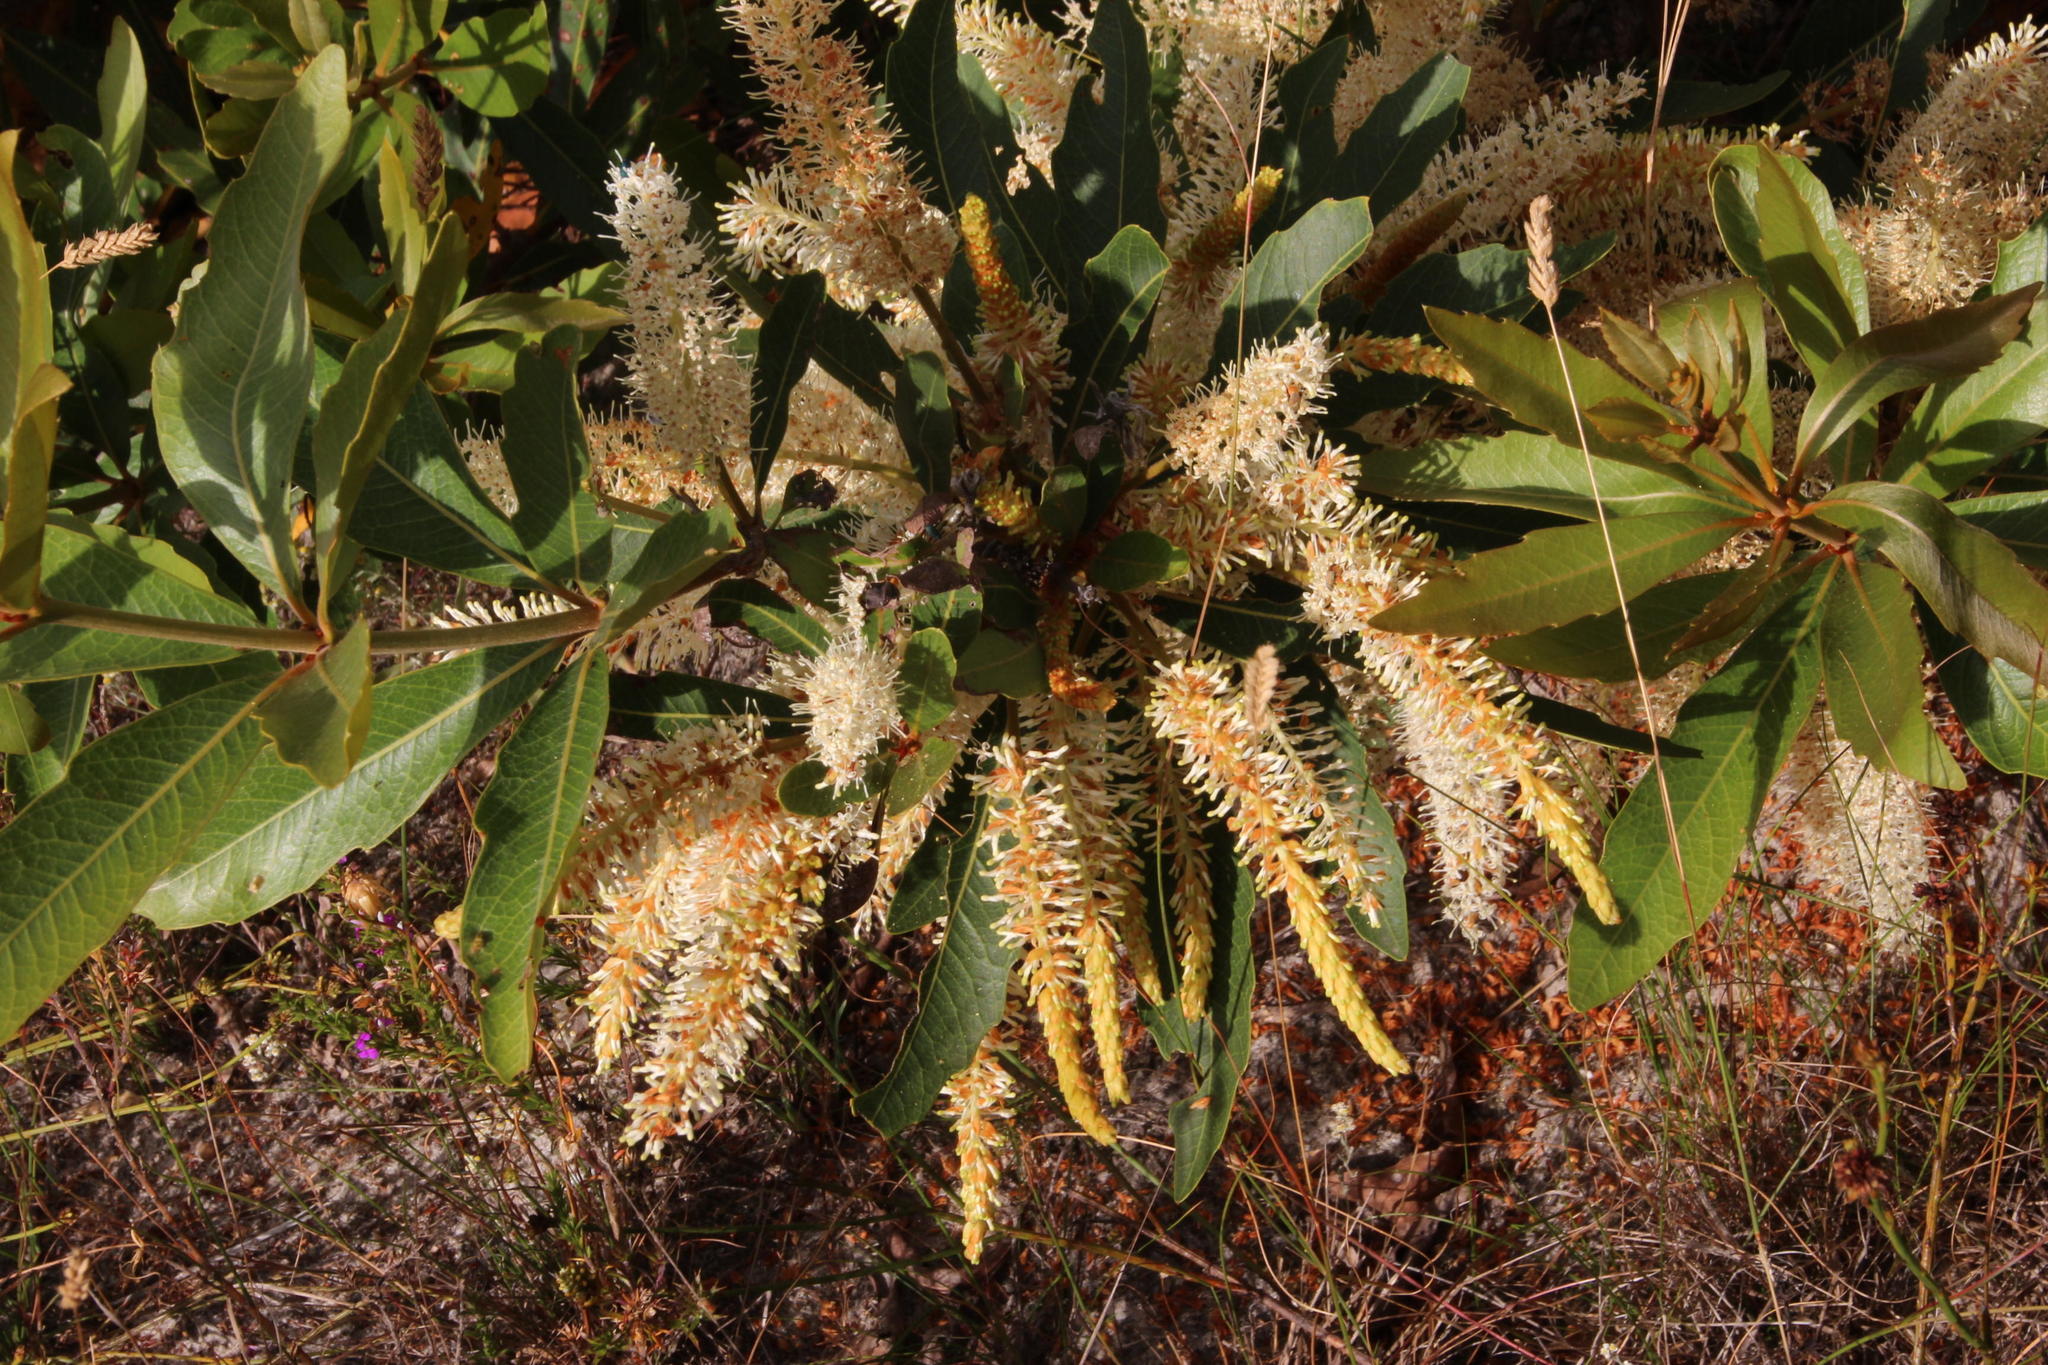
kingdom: Plantae
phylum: Tracheophyta
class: Magnoliopsida
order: Proteales
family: Proteaceae
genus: Brabejum
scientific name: Brabejum stellatifolium
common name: Wild almond
